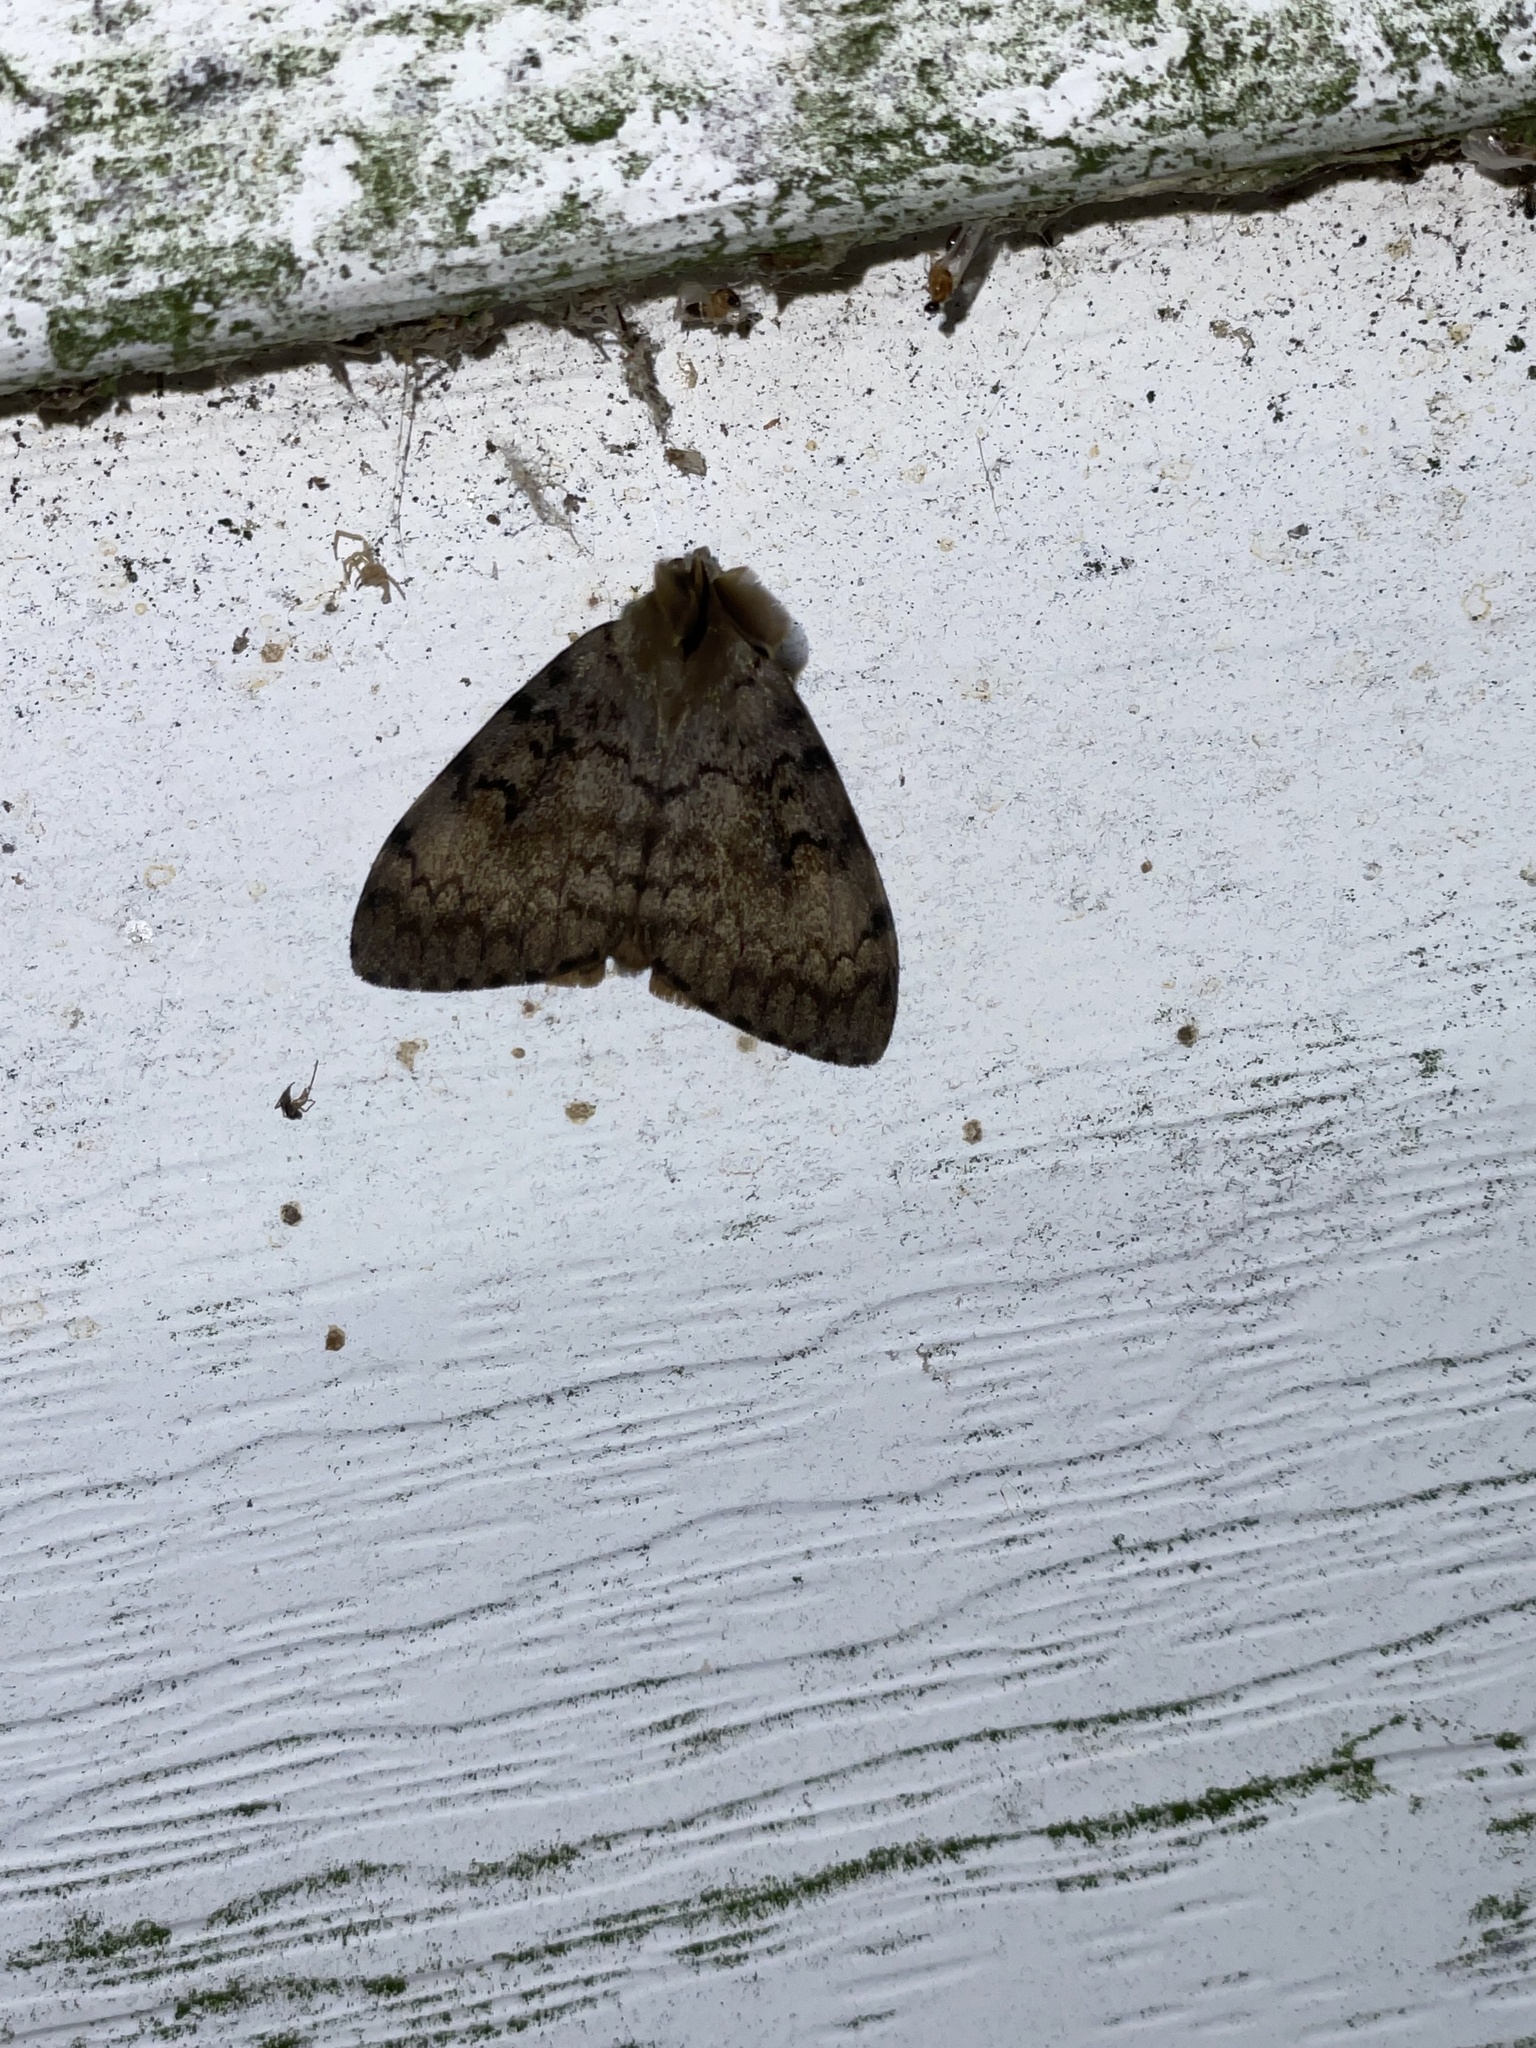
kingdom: Animalia
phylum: Arthropoda
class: Insecta
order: Lepidoptera
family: Erebidae
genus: Lymantria
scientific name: Lymantria dispar
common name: Gypsy moth
